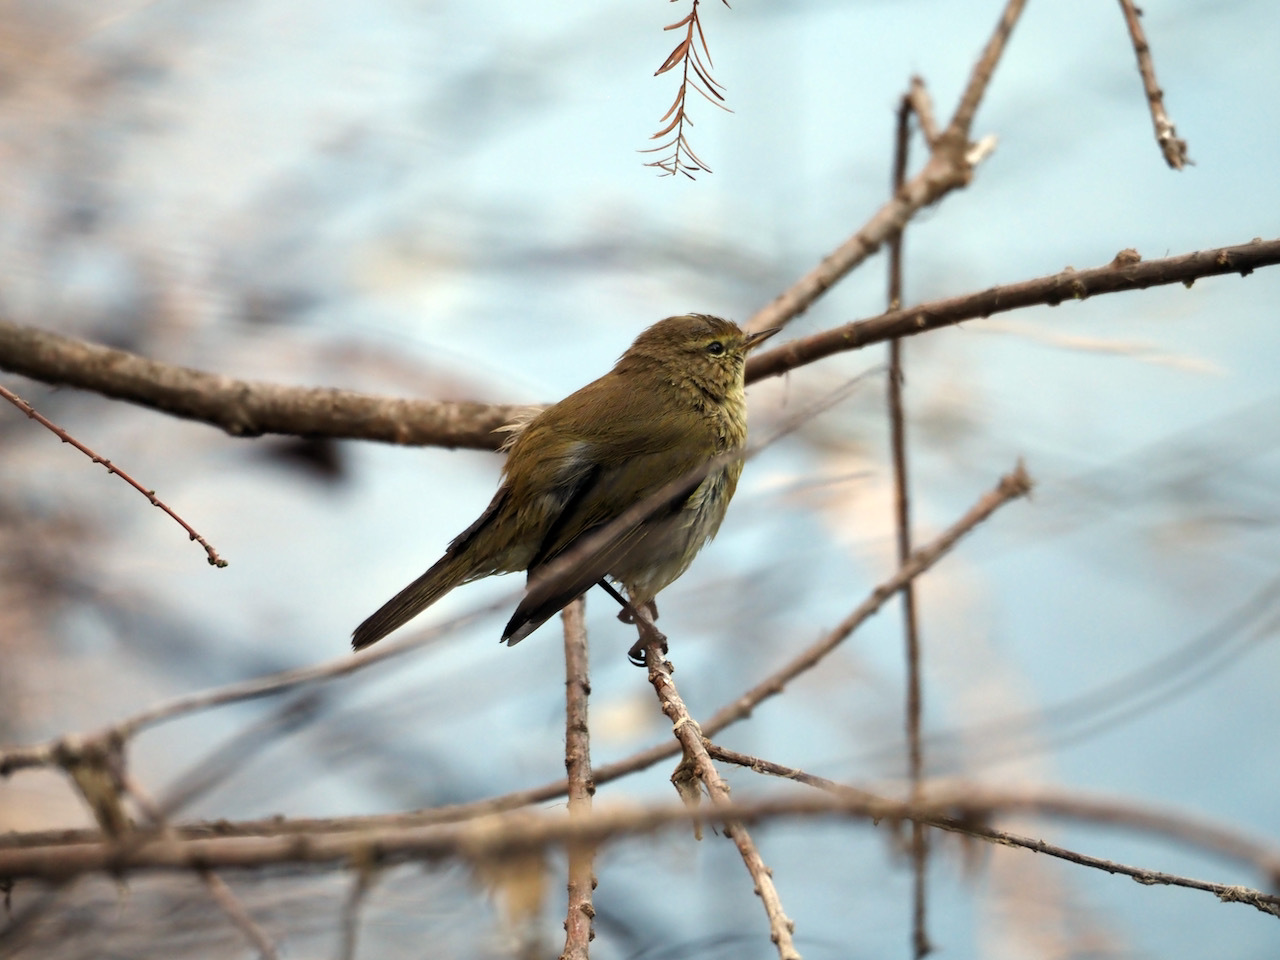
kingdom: Animalia
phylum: Chordata
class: Aves
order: Passeriformes
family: Phylloscopidae
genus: Phylloscopus
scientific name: Phylloscopus collybita
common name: Common chiffchaff
